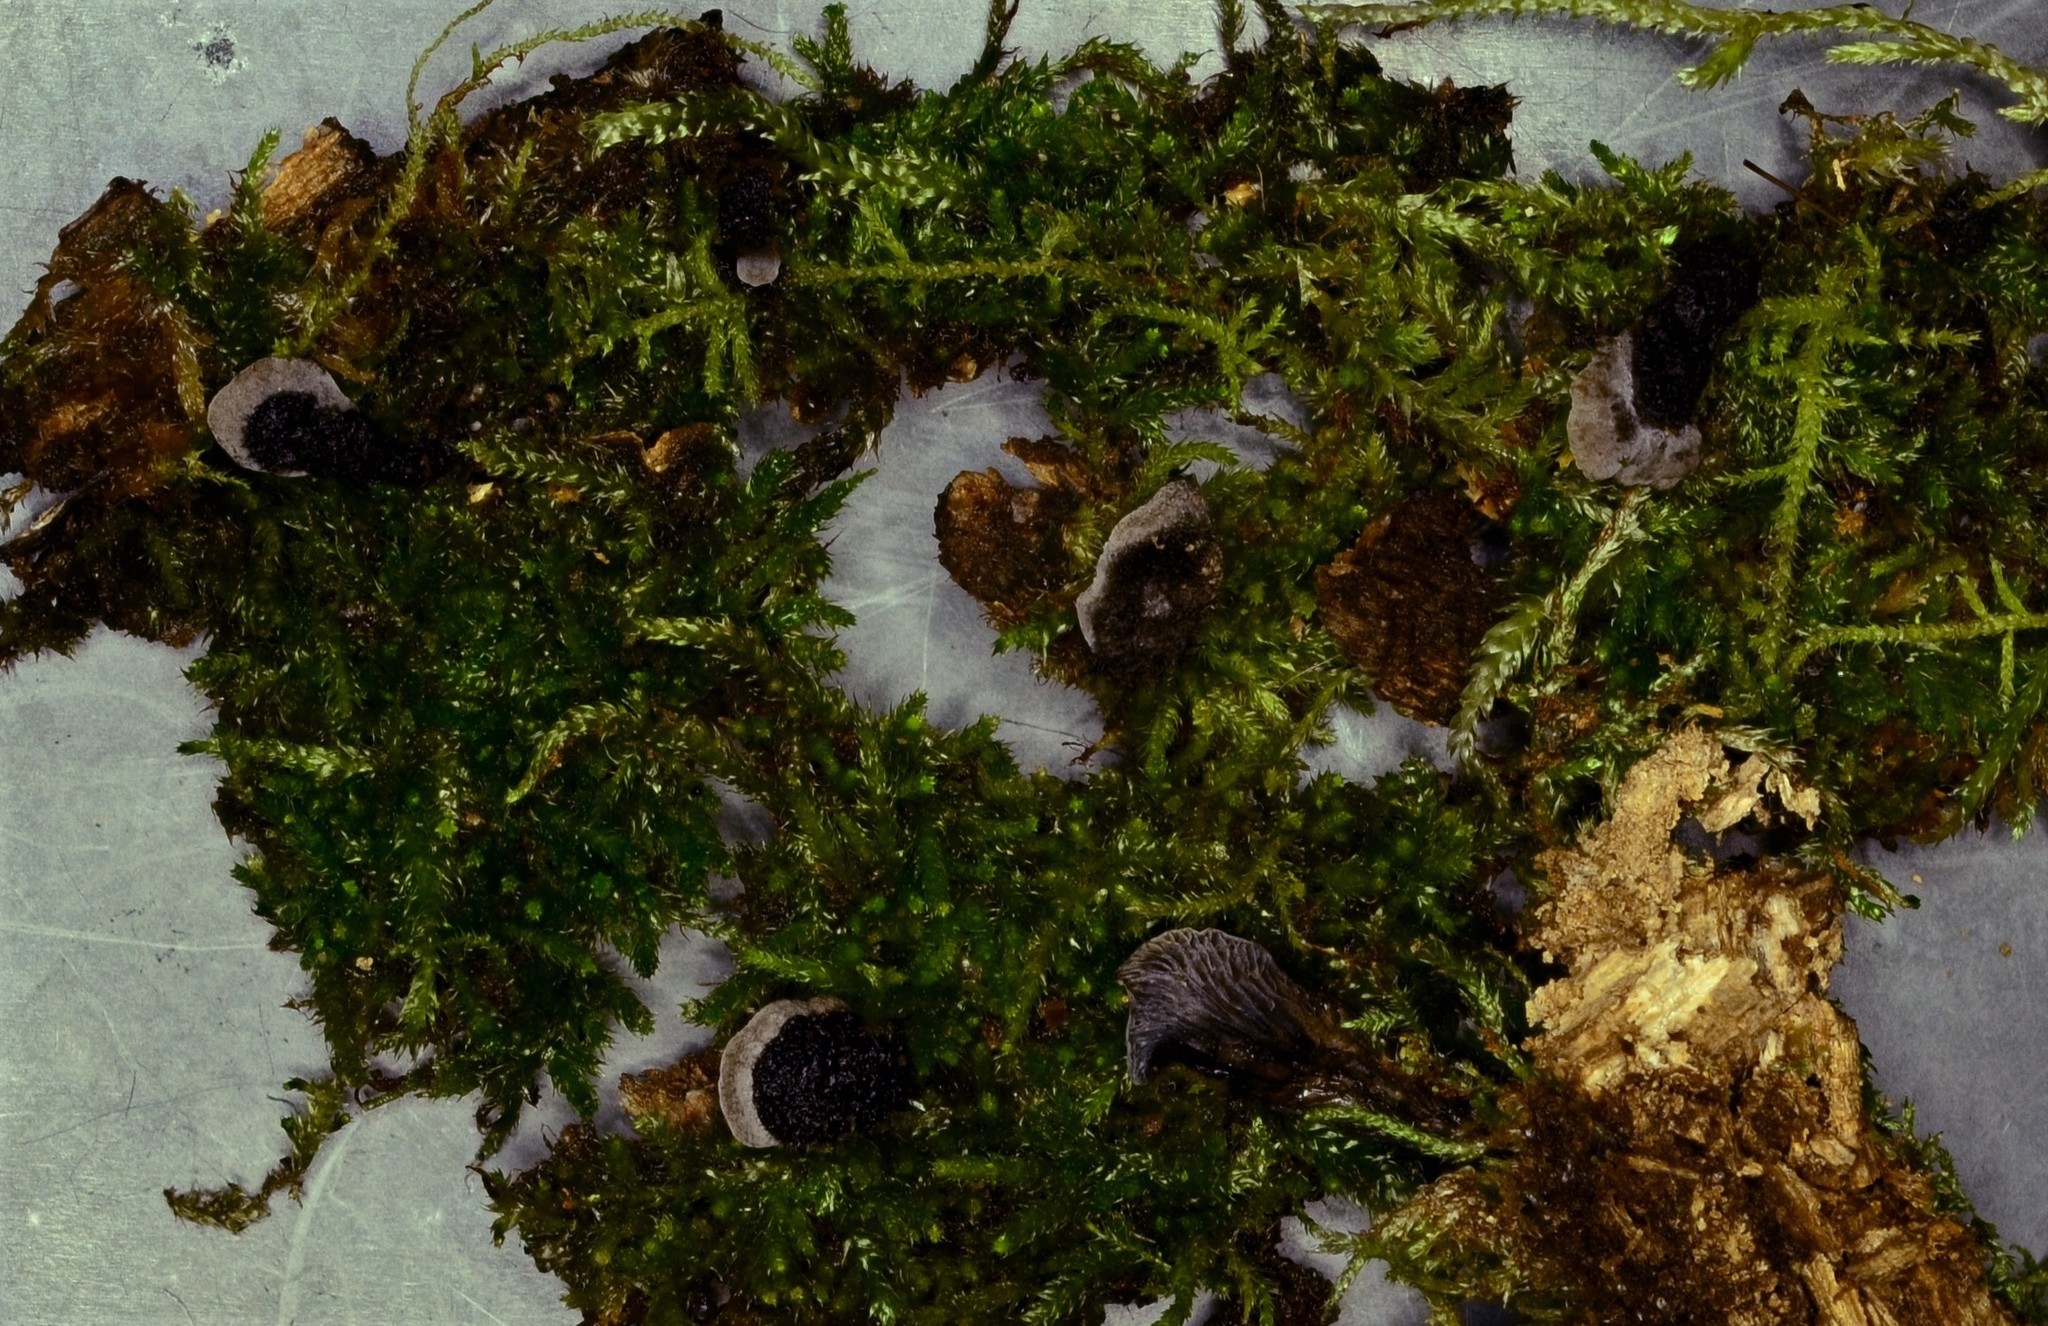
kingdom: Fungi
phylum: Basidiomycota
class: Agaricomycetes
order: Agaricales
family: Pleurotaceae
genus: Resupinatus
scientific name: Resupinatus trichotis
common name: Hairy oysterling
